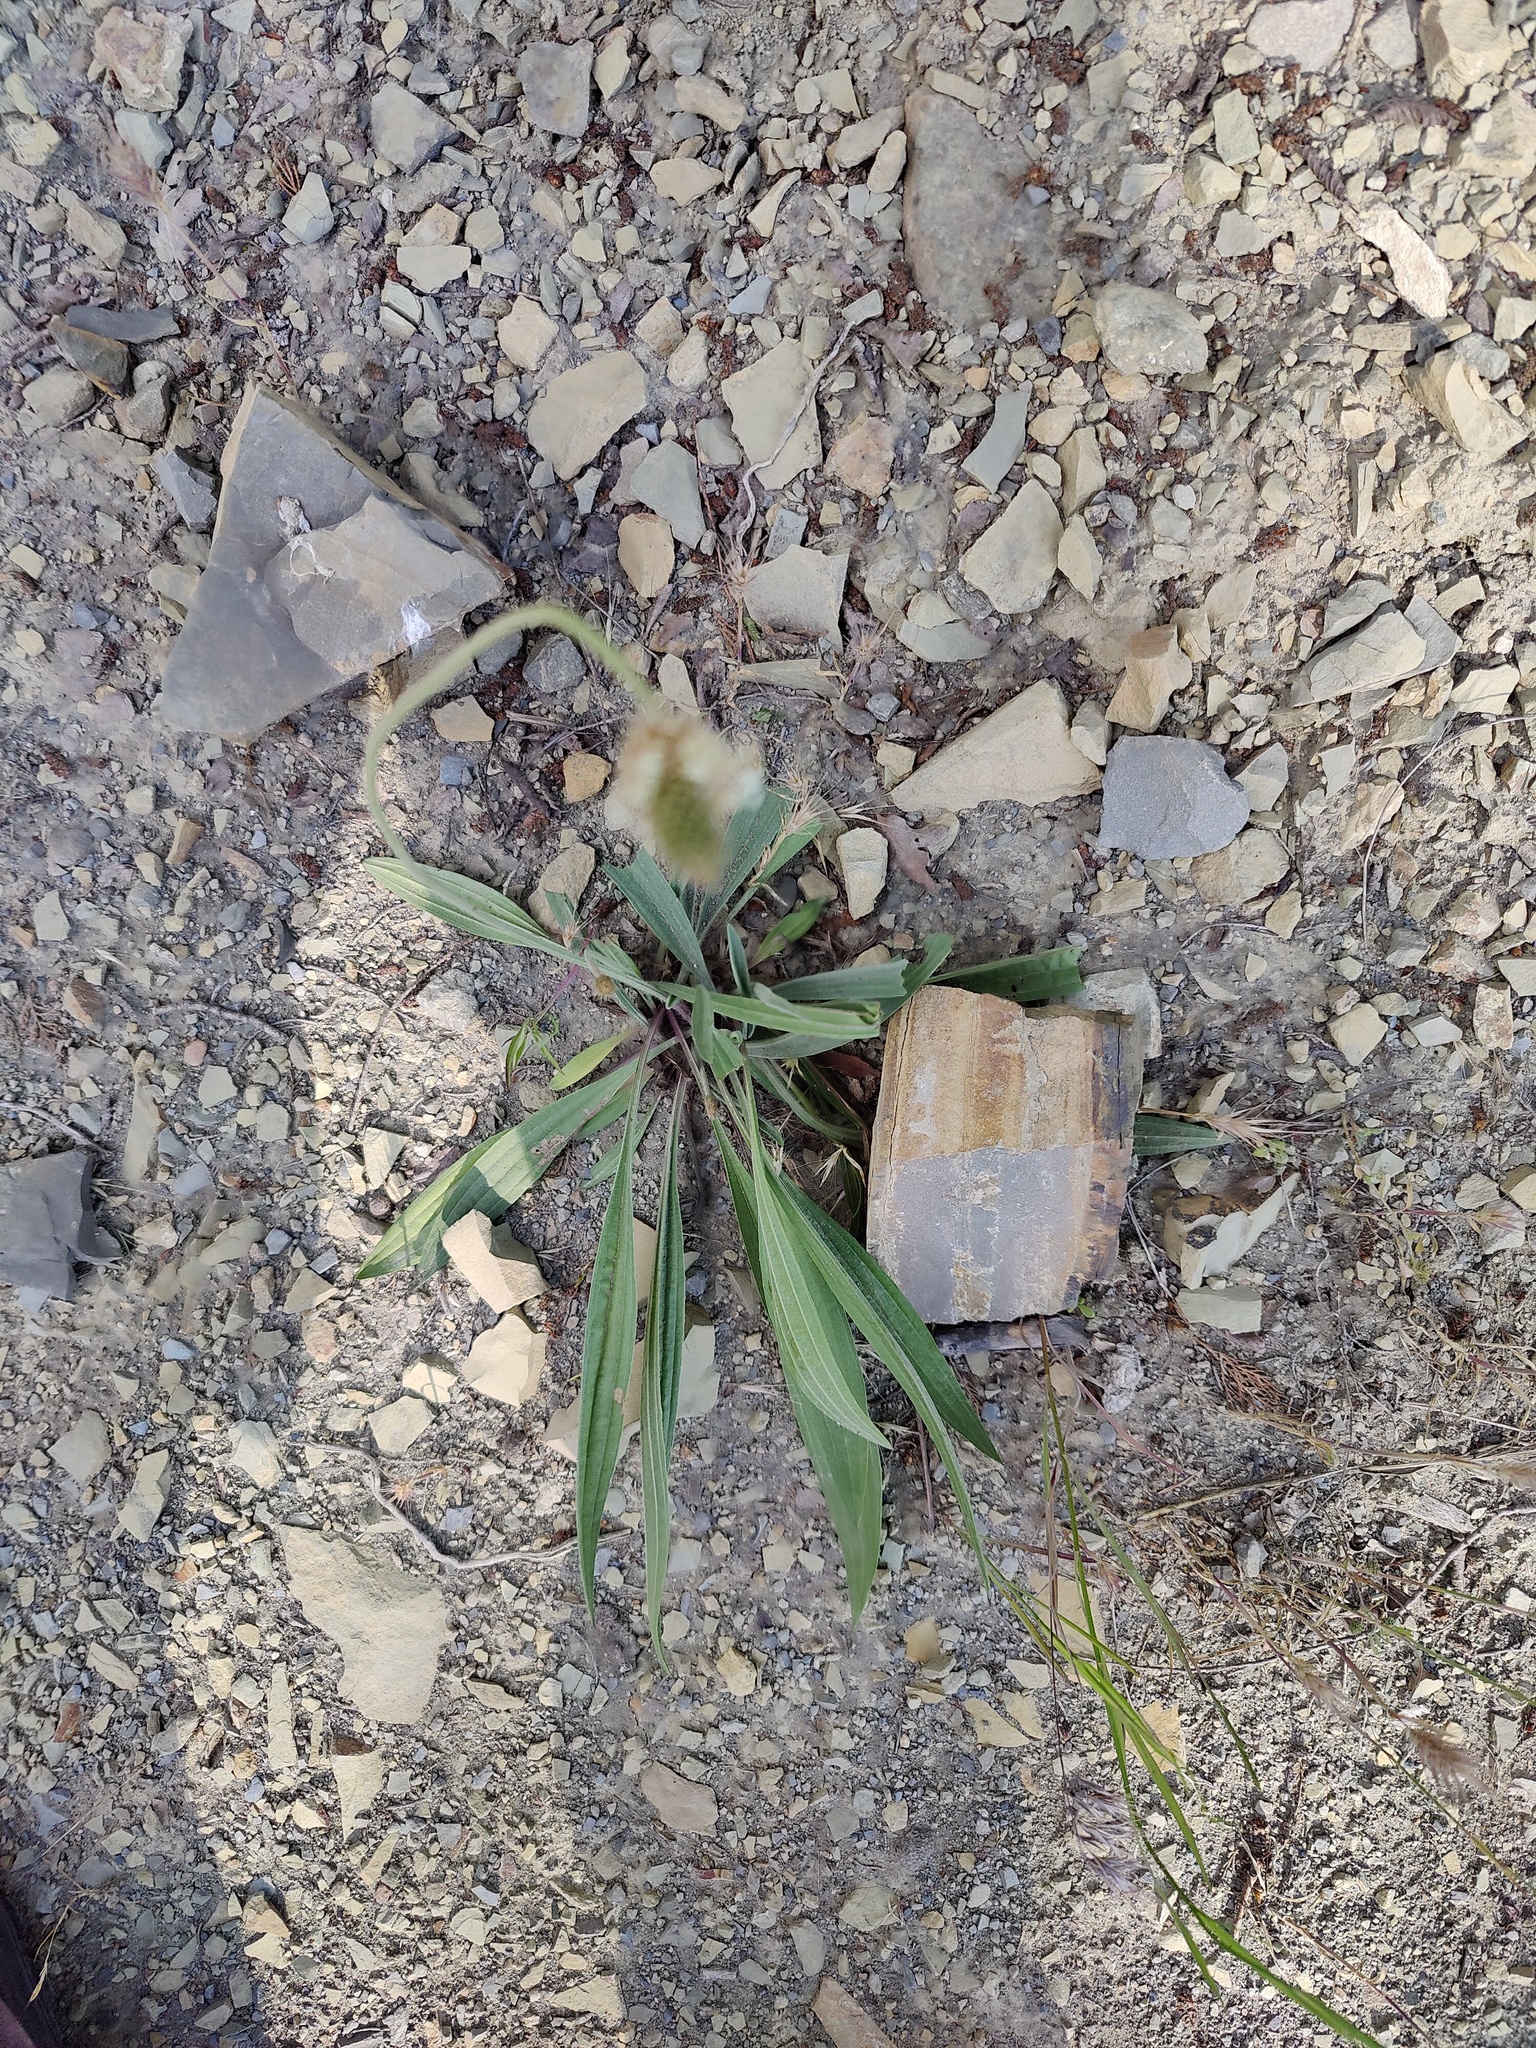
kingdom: Plantae
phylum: Tracheophyta
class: Magnoliopsida
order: Lamiales
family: Plantaginaceae
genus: Plantago
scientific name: Plantago lanceolata
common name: Ribwort plantain
